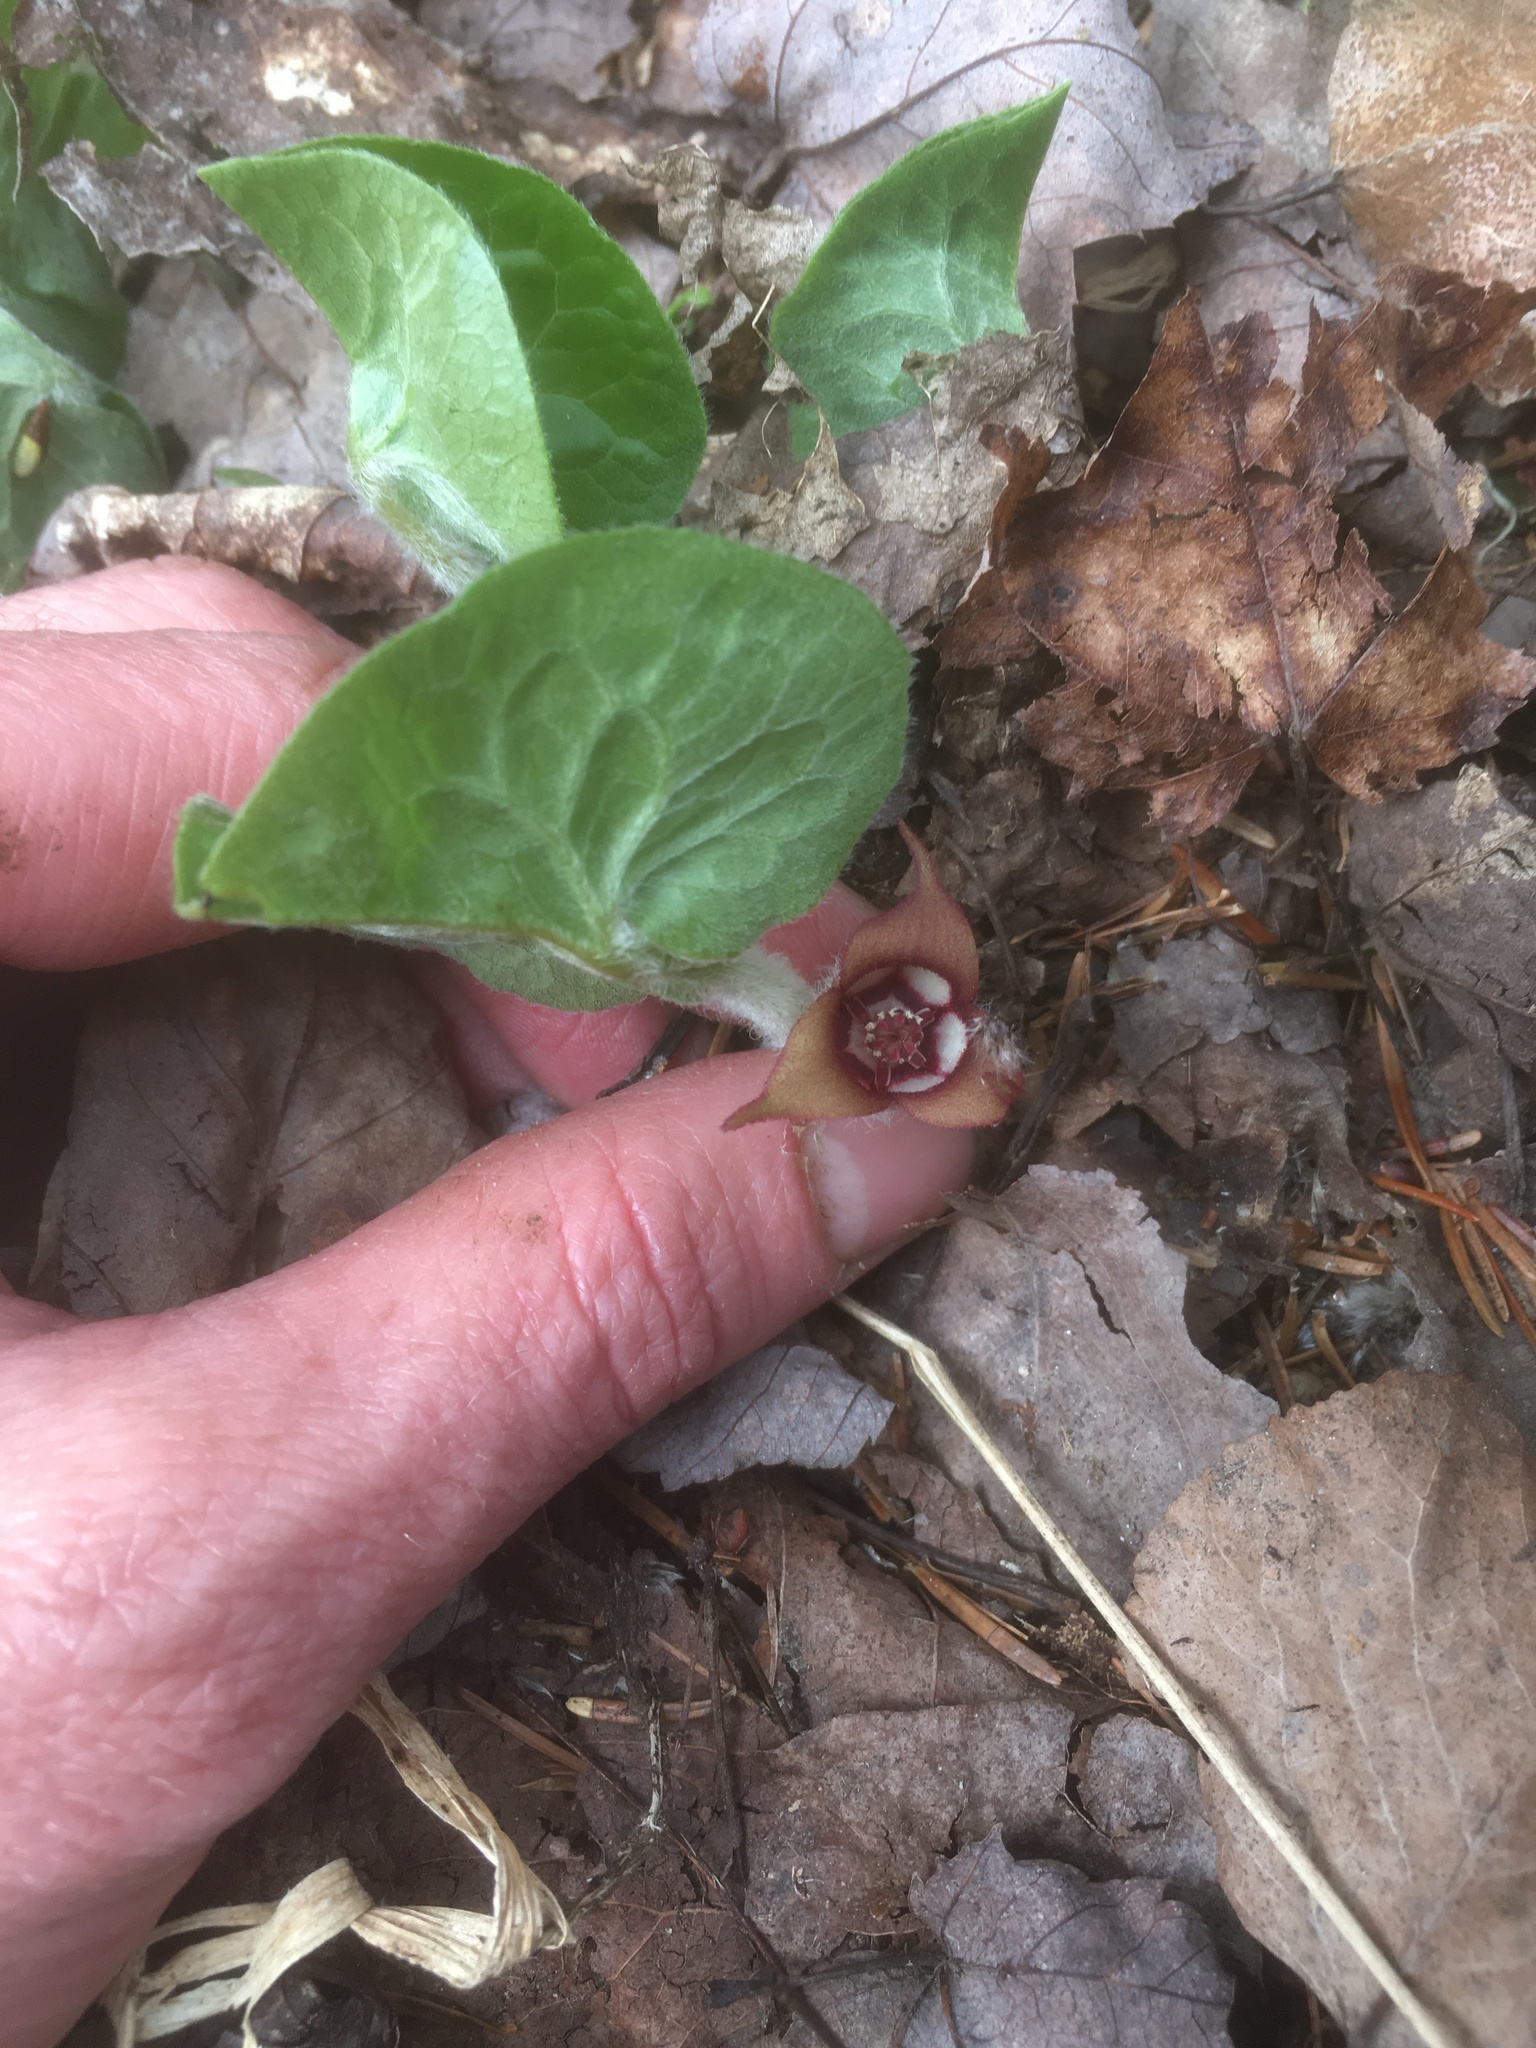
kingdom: Plantae
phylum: Tracheophyta
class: Magnoliopsida
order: Piperales
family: Aristolochiaceae
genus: Asarum
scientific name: Asarum canadense
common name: Wild ginger
